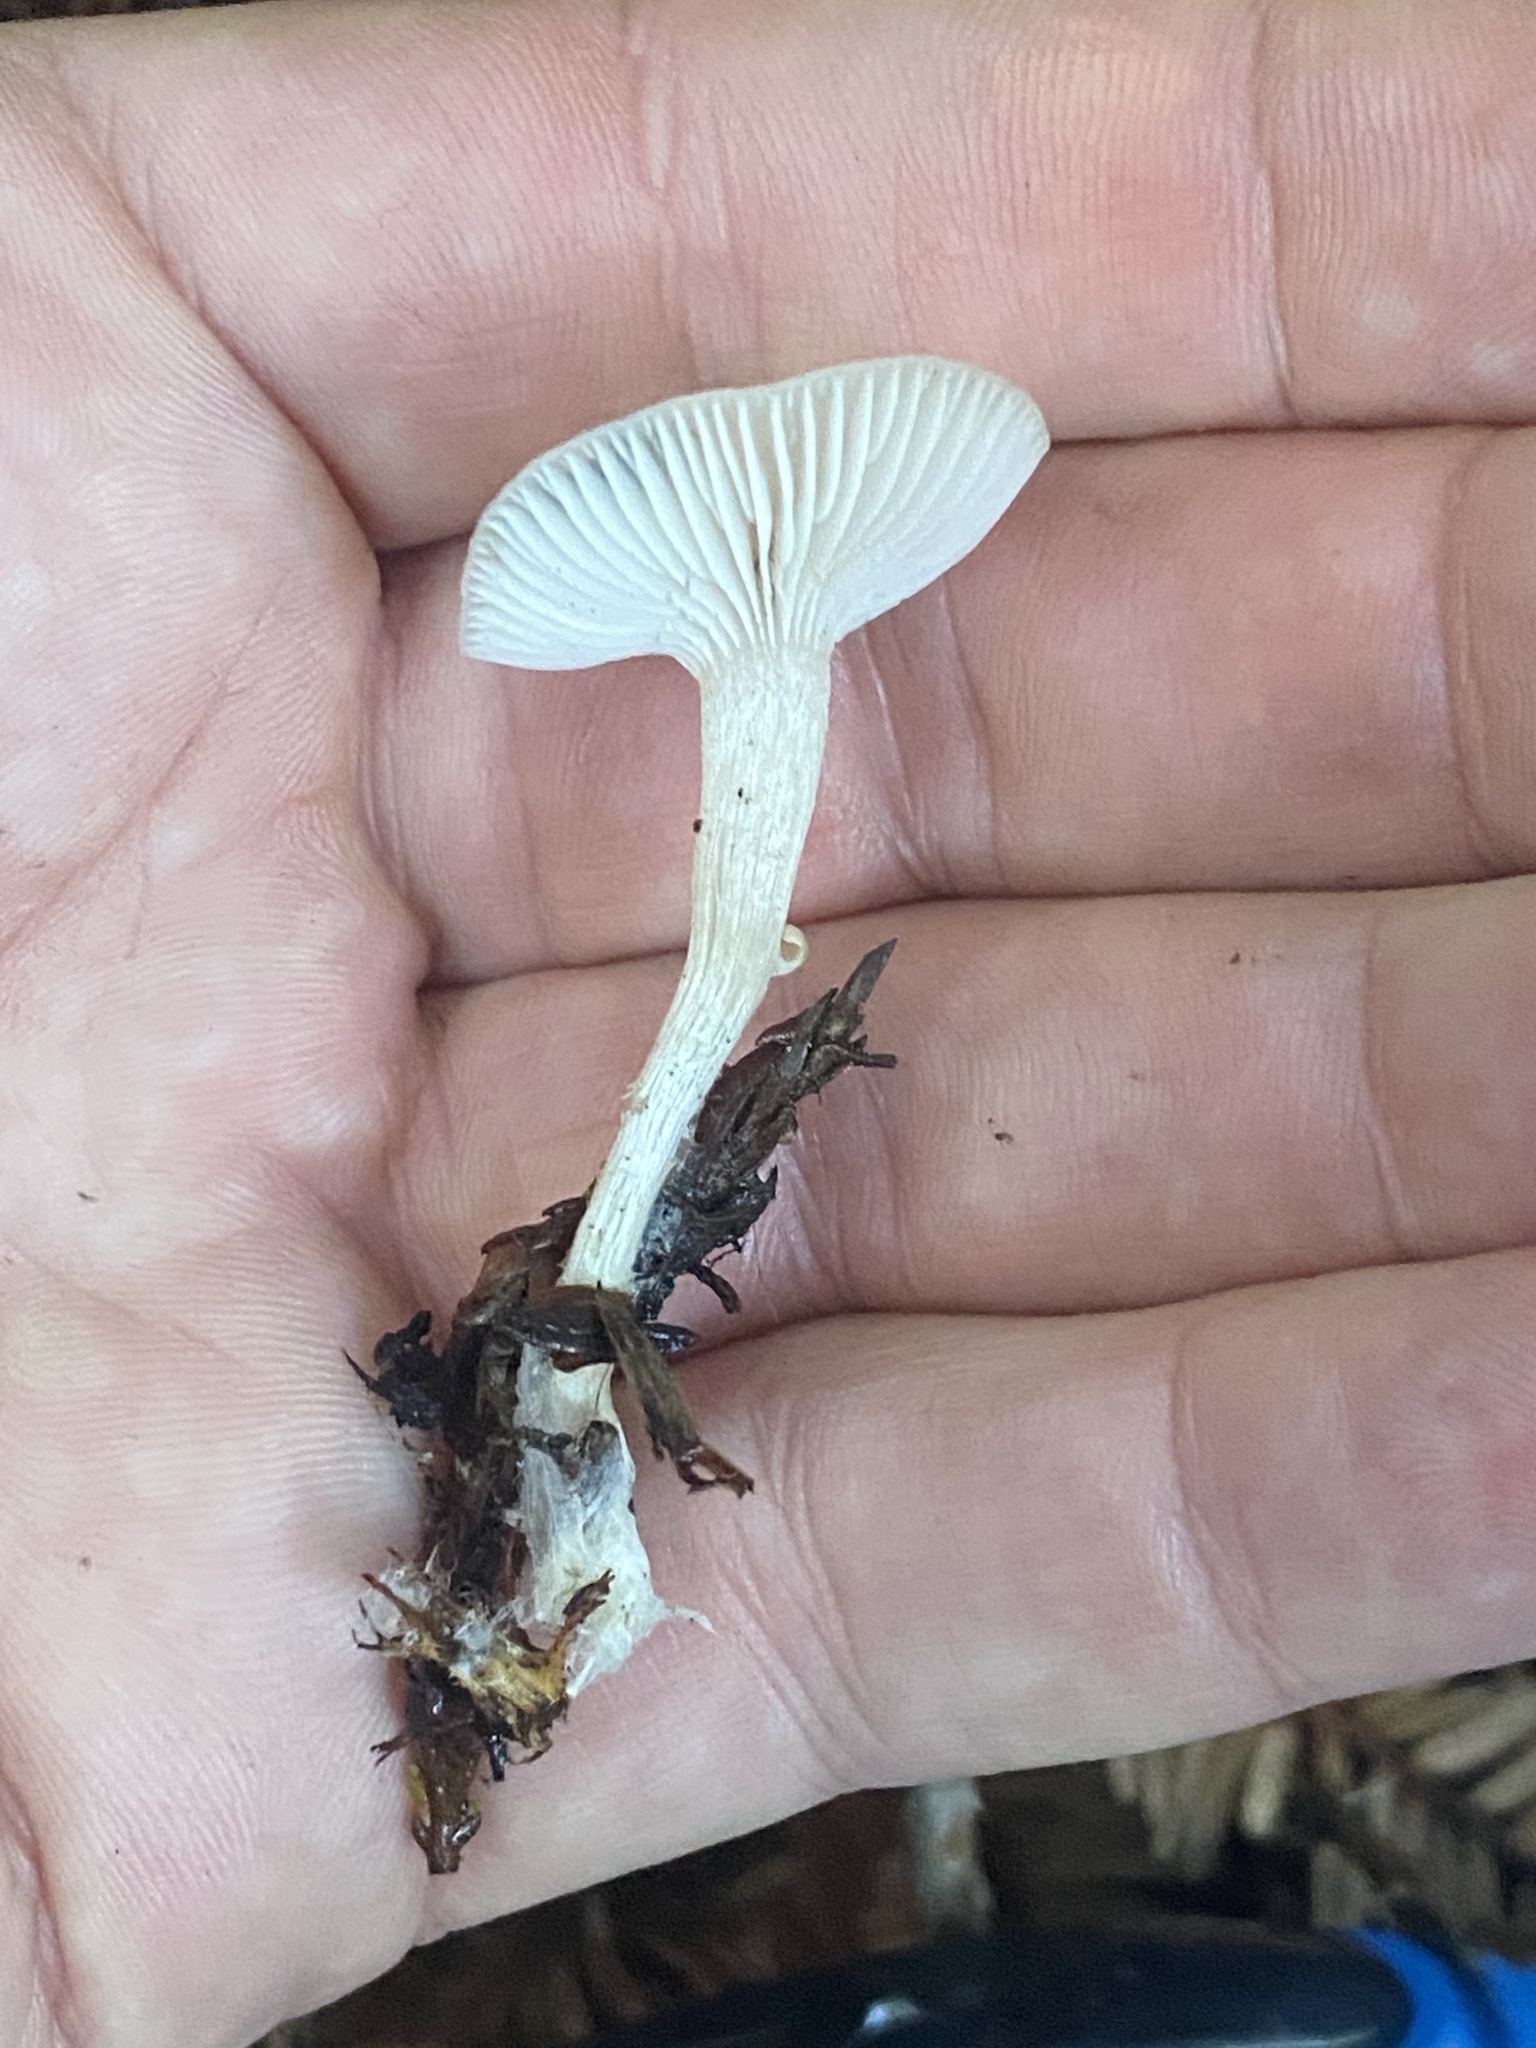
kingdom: Fungi
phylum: Basidiomycota
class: Agaricomycetes
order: Agaricales
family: Tricholomataceae
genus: Clitocybe
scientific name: Clitocybe fragrans
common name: Fragrant funnel
